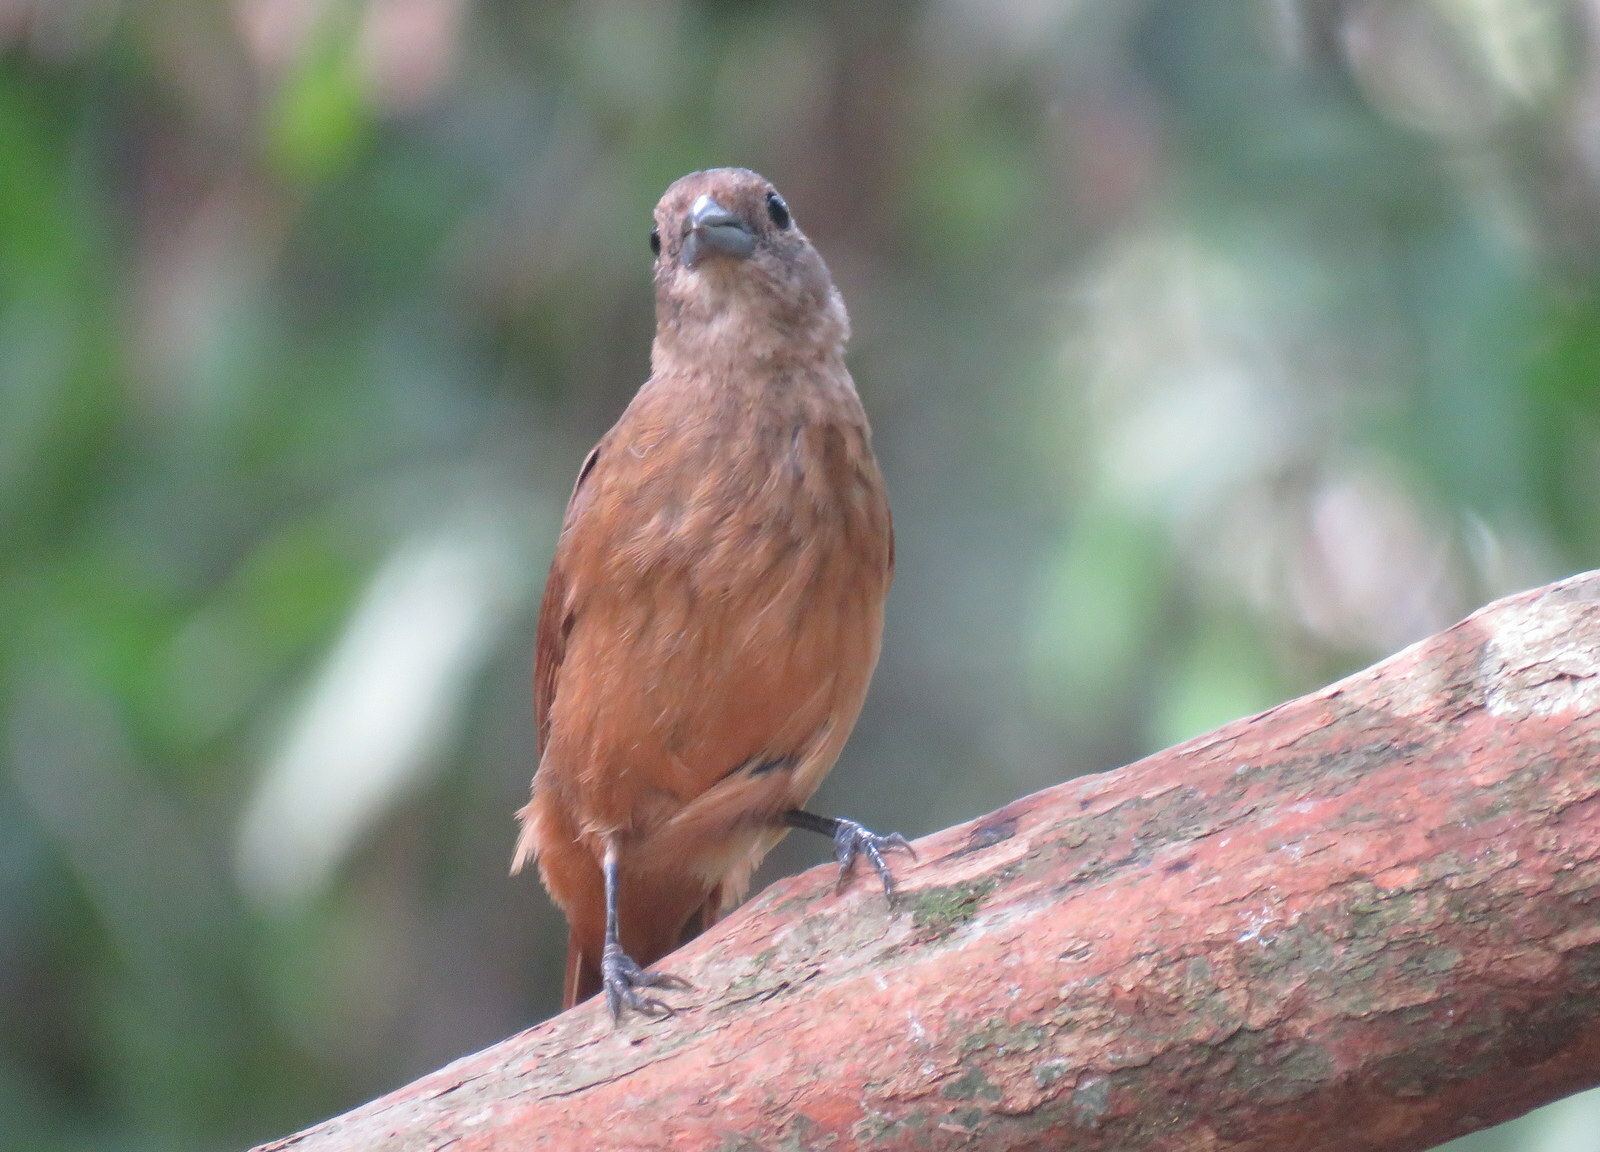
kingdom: Animalia
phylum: Chordata
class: Aves
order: Passeriformes
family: Thraupidae
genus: Tachyphonus
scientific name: Tachyphonus coronatus
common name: Ruby-crowned tanager
